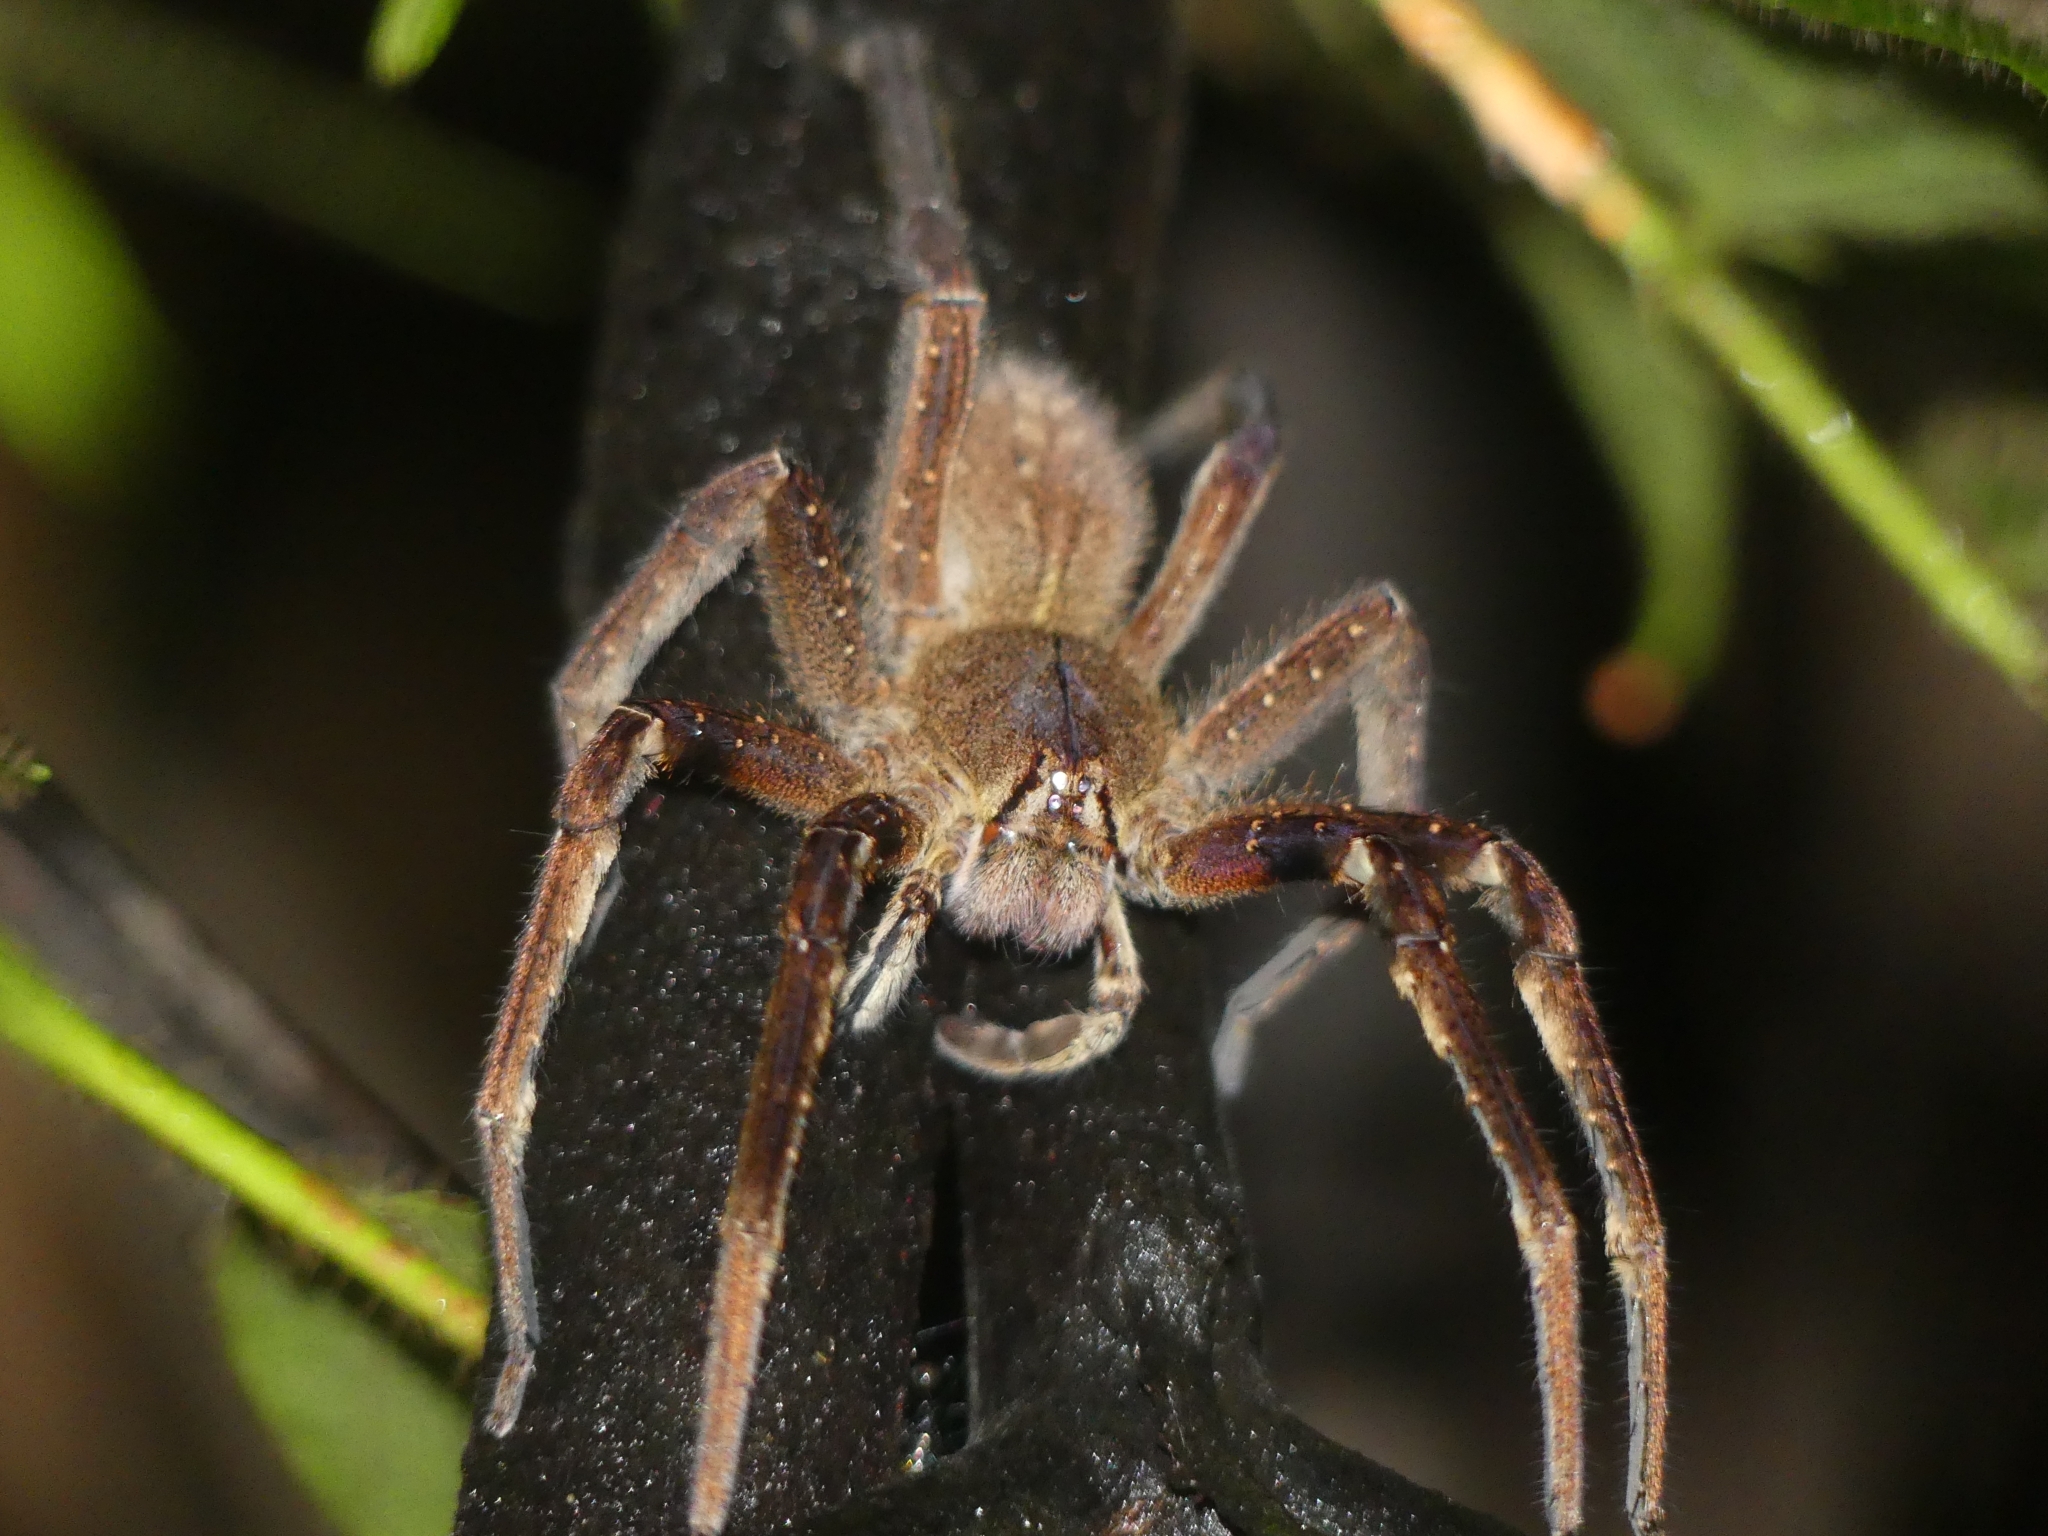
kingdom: Animalia
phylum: Arthropoda
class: Arachnida
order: Araneae
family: Ctenidae
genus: Phoneutria
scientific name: Phoneutria fera
